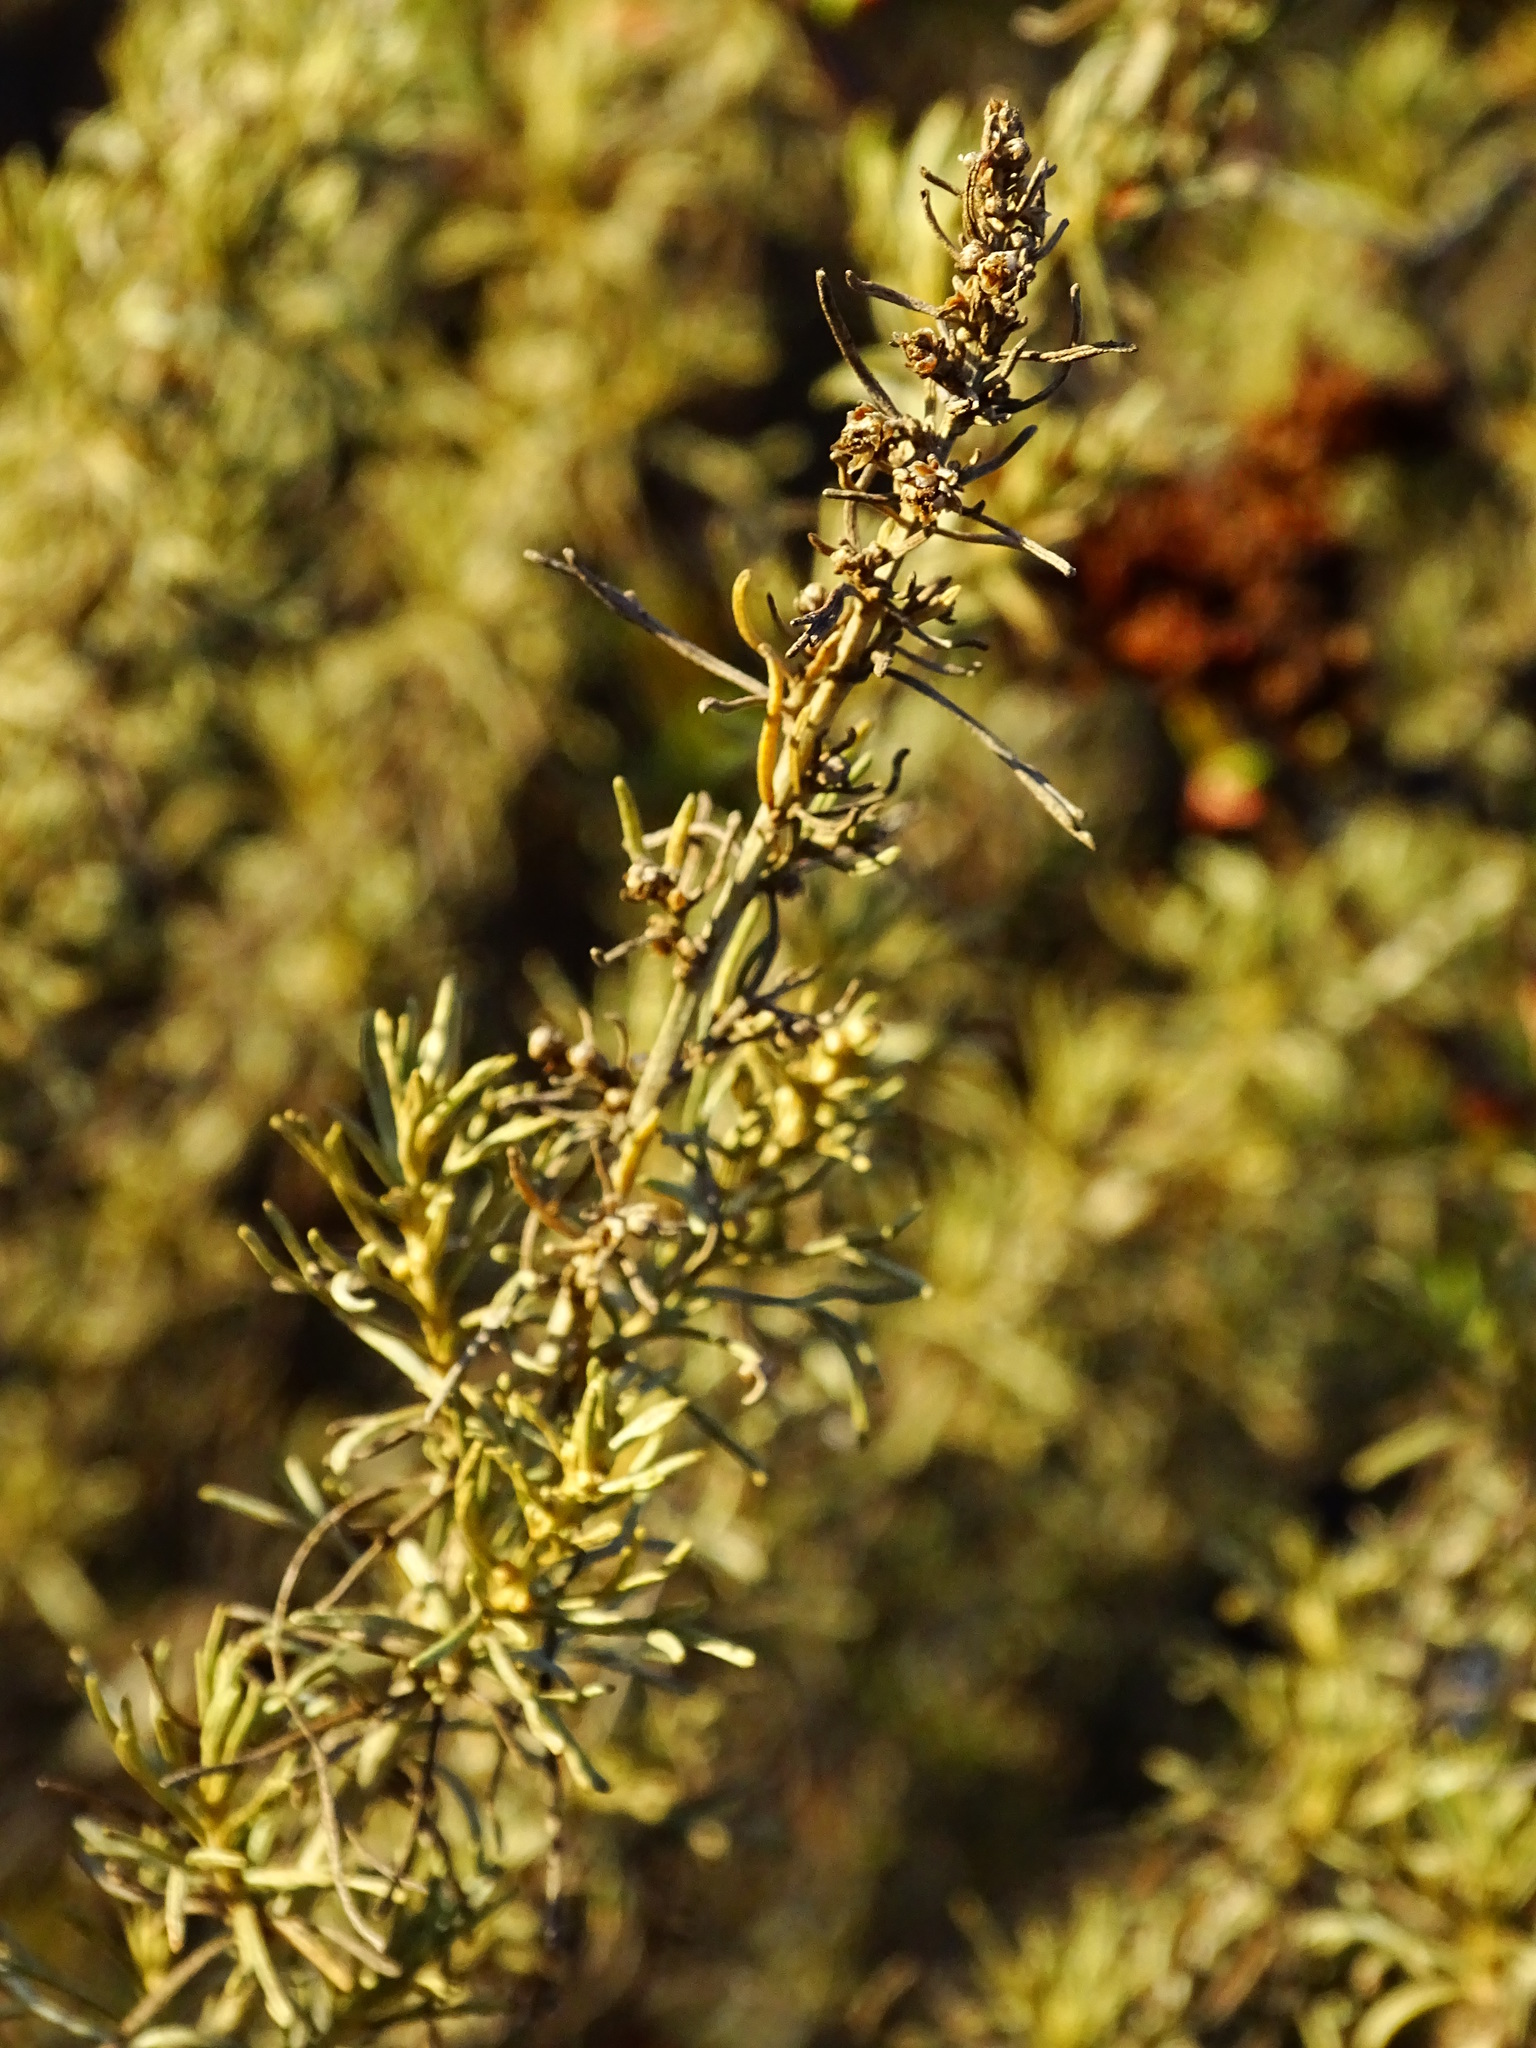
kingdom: Plantae
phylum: Tracheophyta
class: Magnoliopsida
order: Asterales
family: Asteraceae
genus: Artemisia
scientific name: Artemisia californica
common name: California sagebrush
